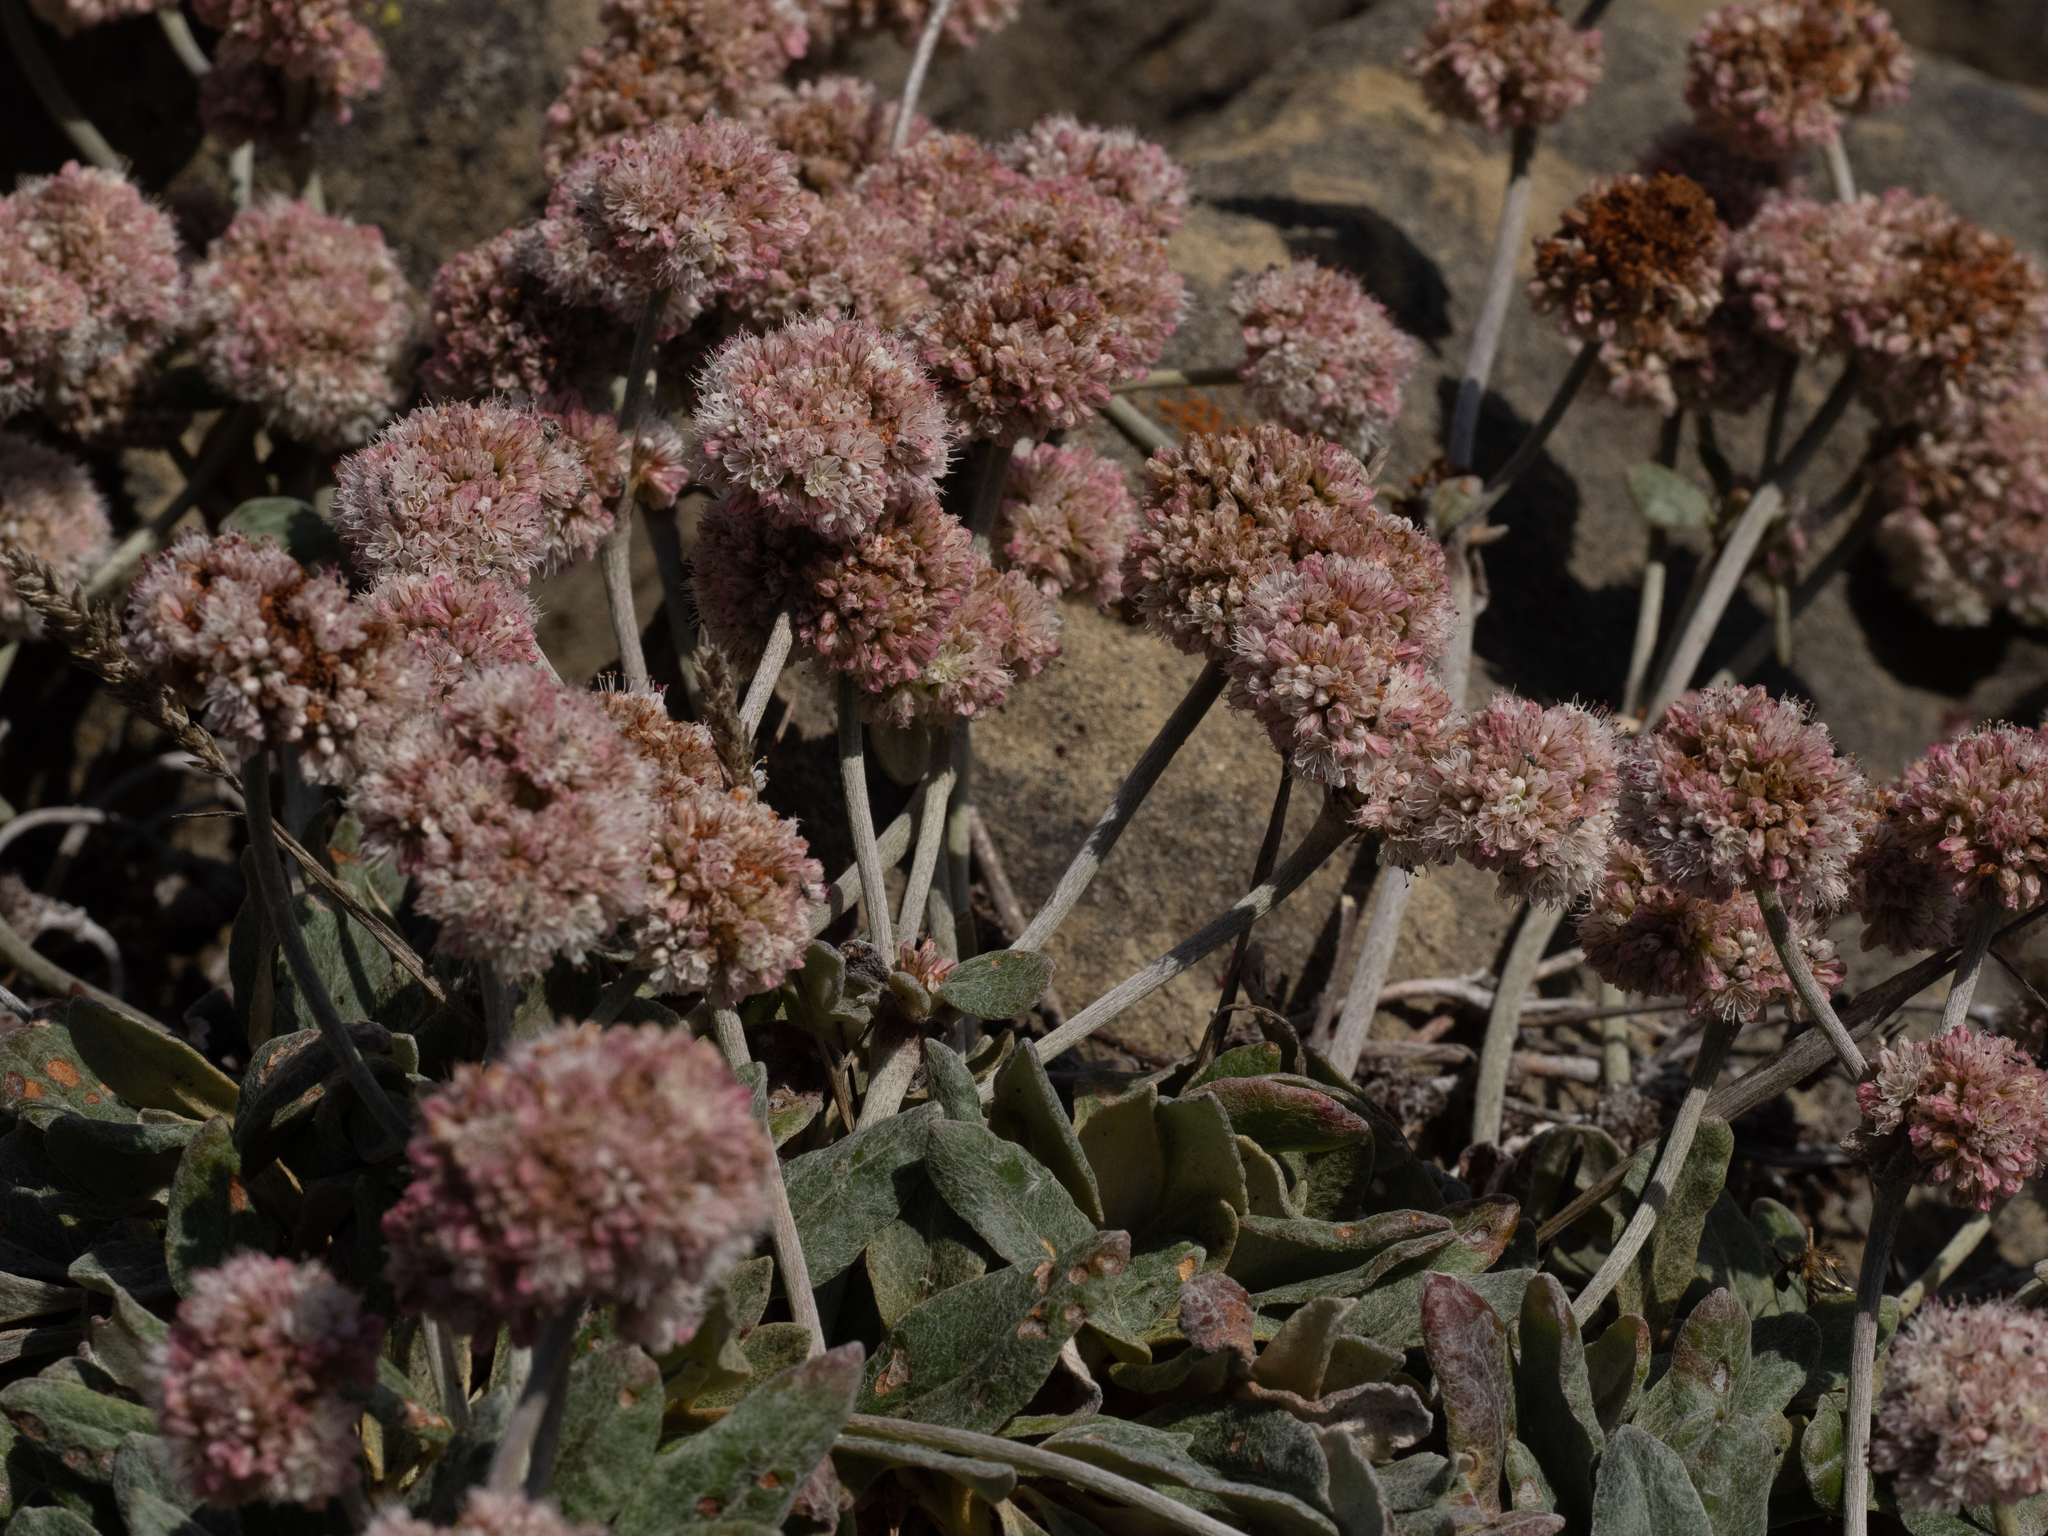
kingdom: Plantae
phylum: Tracheophyta
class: Magnoliopsida
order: Caryophyllales
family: Polygonaceae
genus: Eriogonum
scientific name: Eriogonum latifolium
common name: Seaside wild buckwheat
